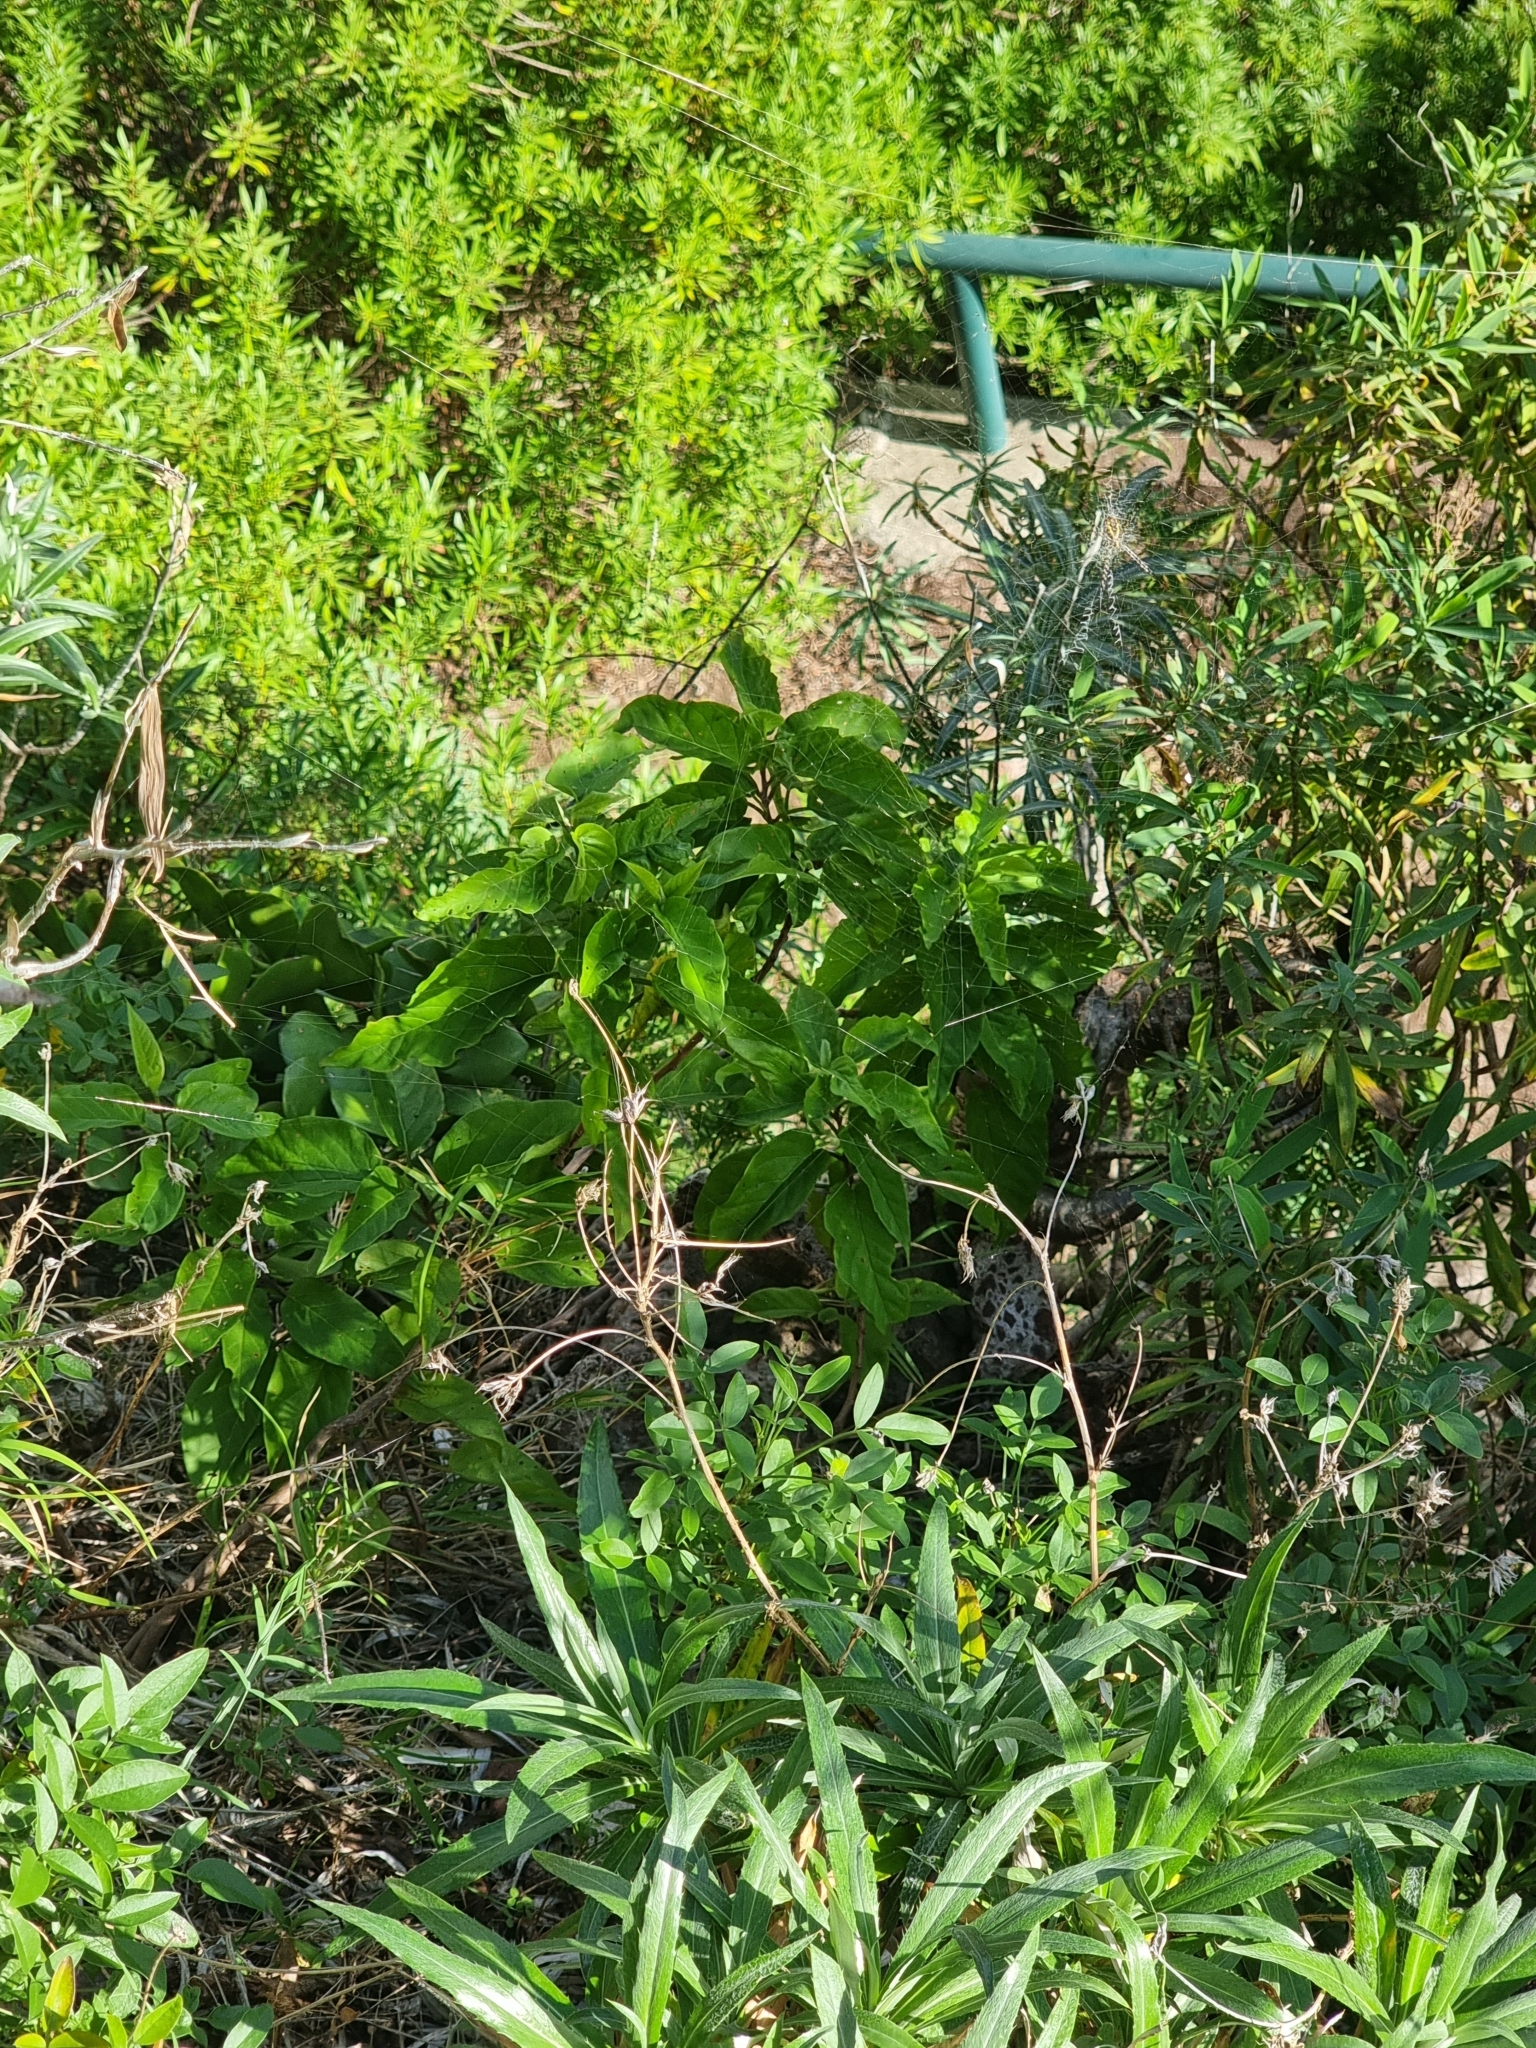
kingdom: Plantae
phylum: Tracheophyta
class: Magnoliopsida
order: Solanales
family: Convolvulaceae
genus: Convolvulus
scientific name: Convolvulus massonii
